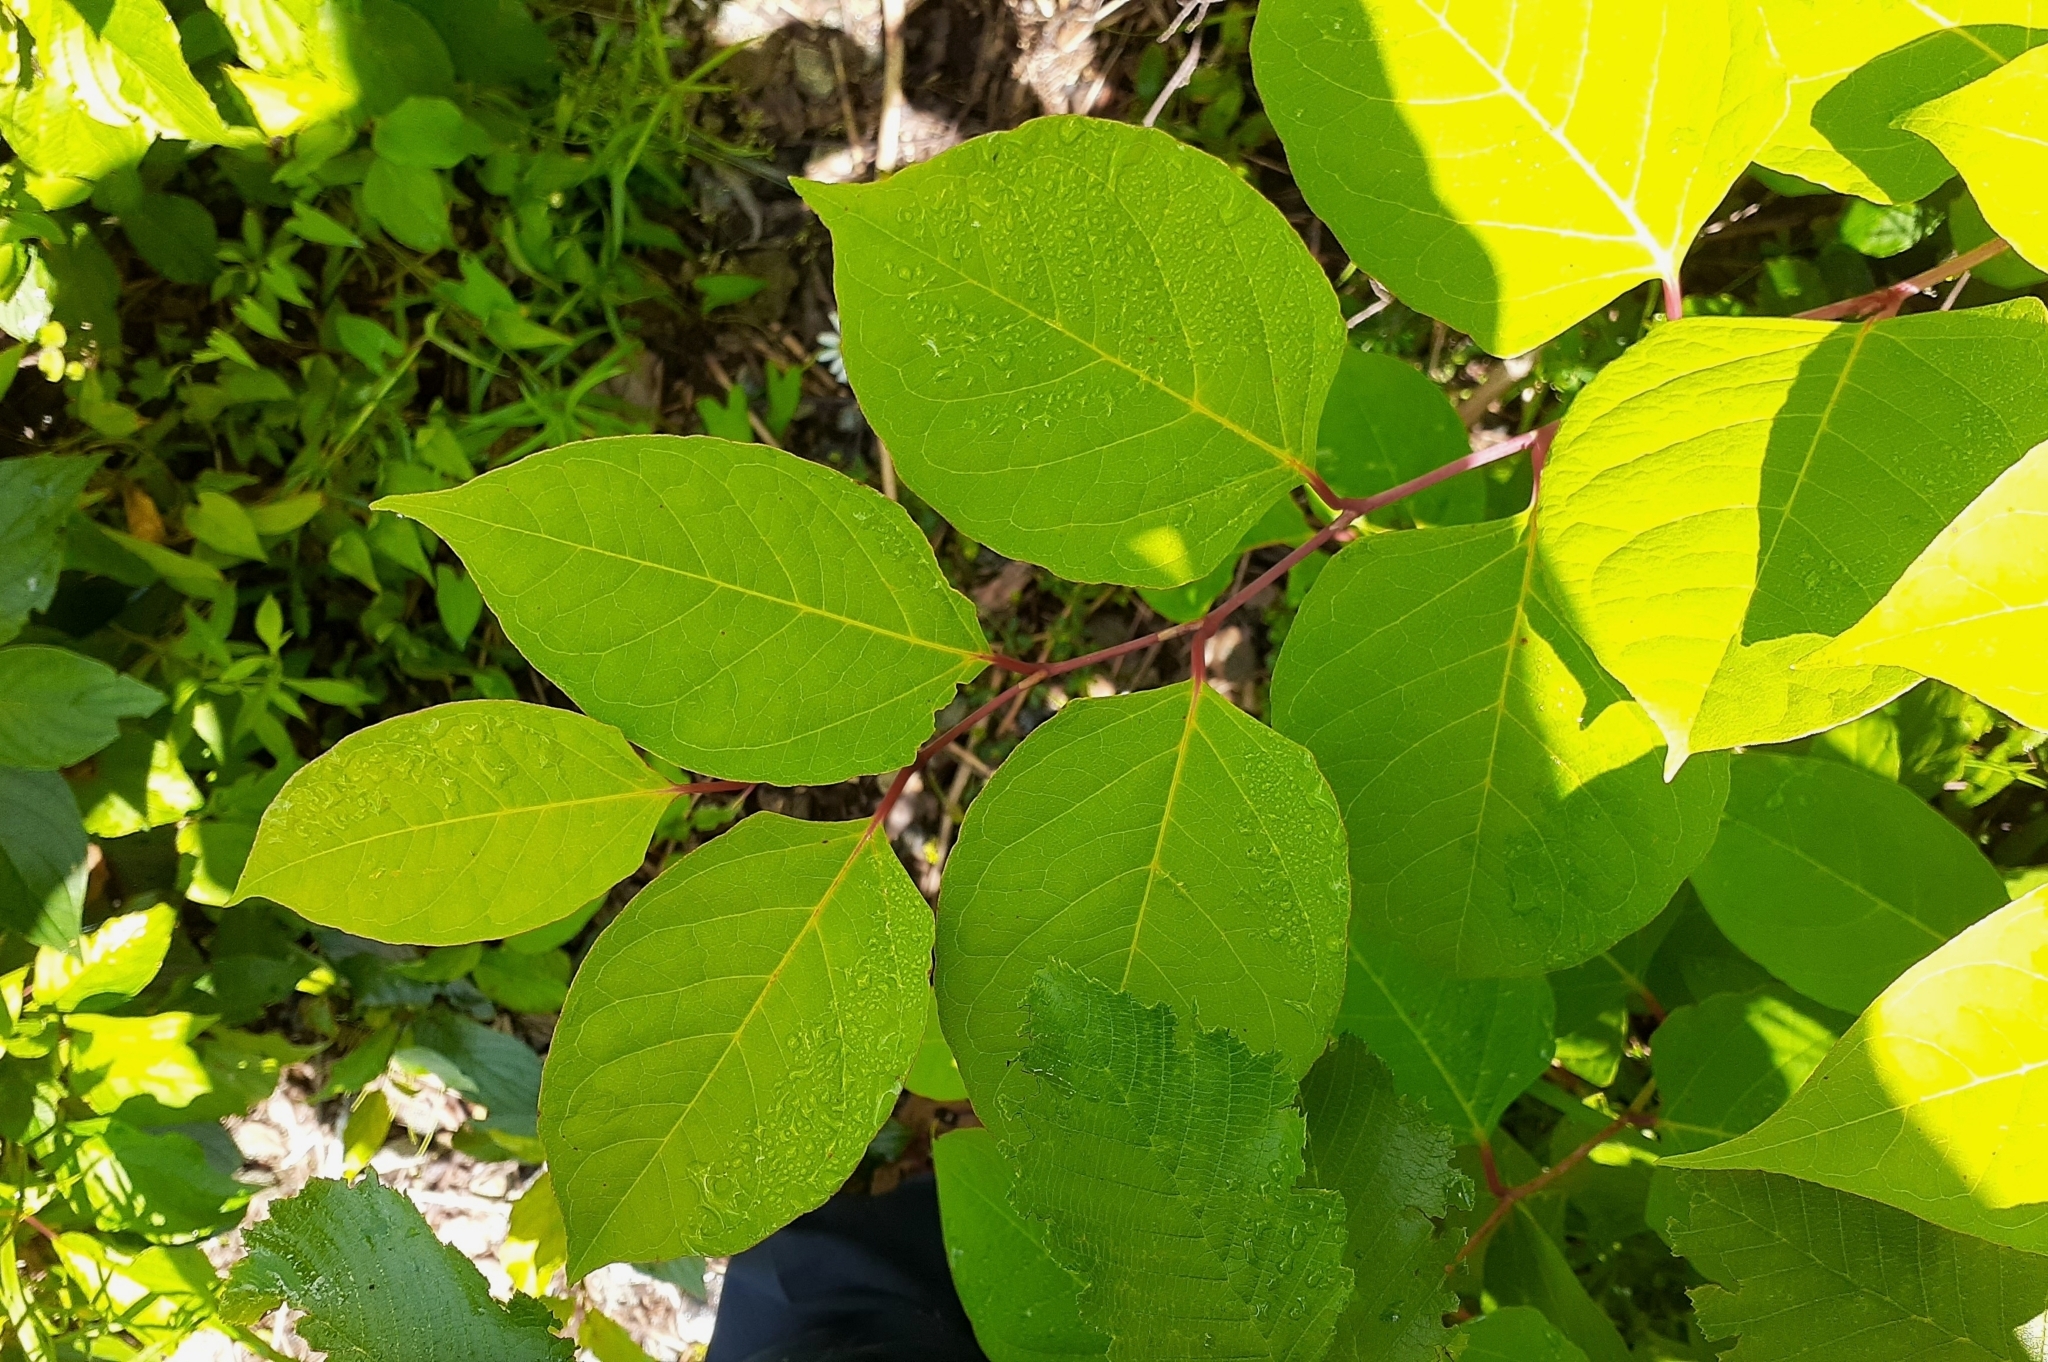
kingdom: Plantae
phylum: Tracheophyta
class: Magnoliopsida
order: Caryophyllales
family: Polygonaceae
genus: Reynoutria
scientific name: Reynoutria japonica
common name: Japanese knotweed
